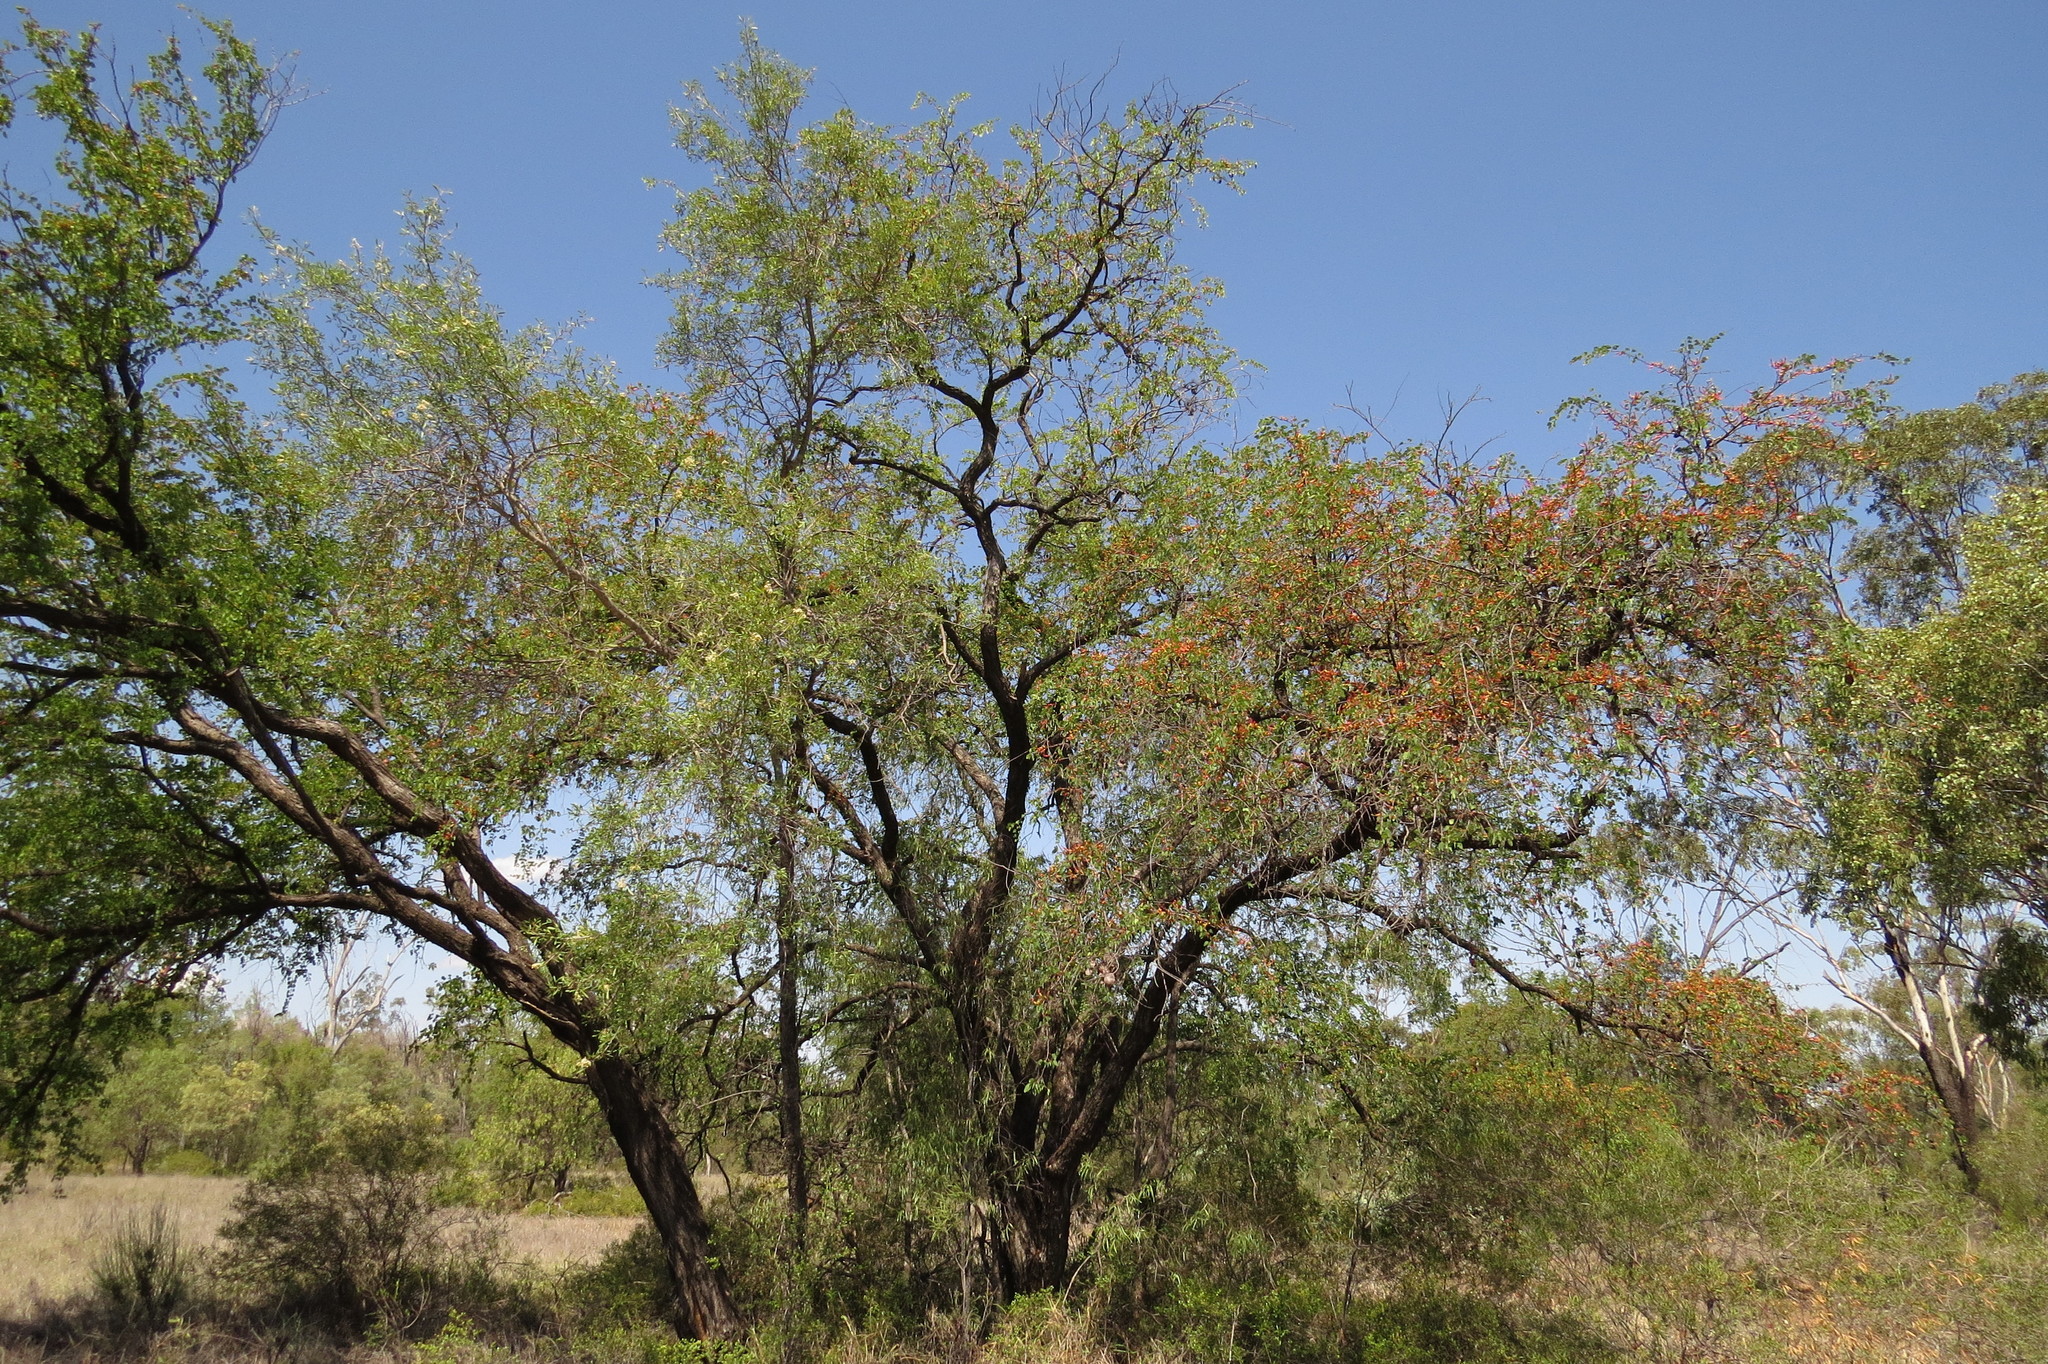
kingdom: Plantae
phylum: Tracheophyta
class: Magnoliopsida
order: Fabales
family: Fabaceae
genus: Lysiphyllum
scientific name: Lysiphyllum carronii
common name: Carron's bauhinia
